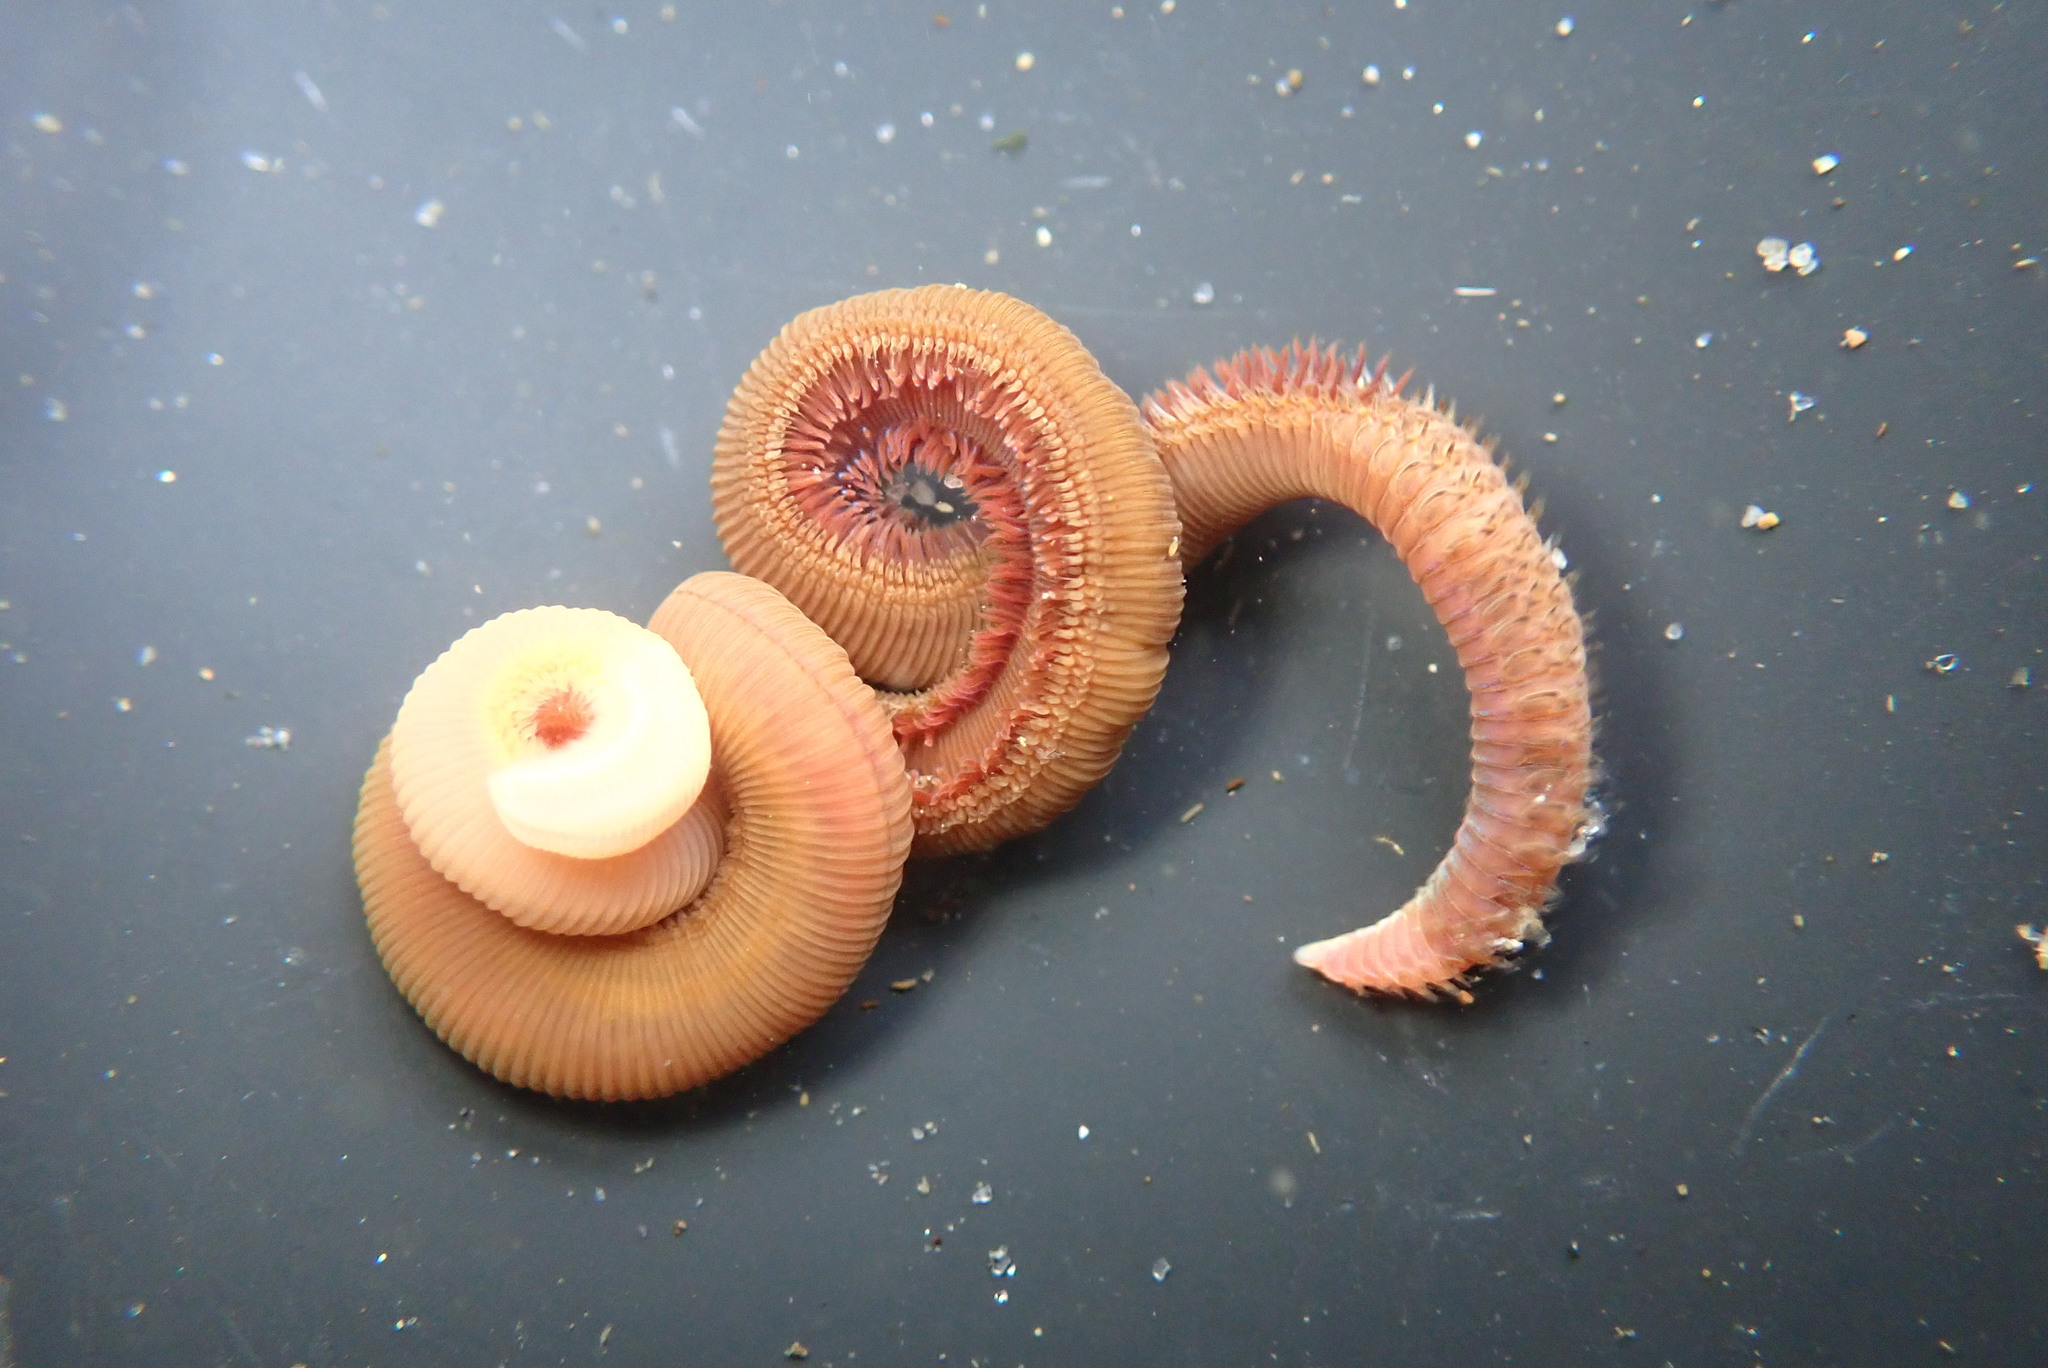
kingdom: Animalia
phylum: Annelida
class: Polychaeta
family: Orbiniidae
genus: Naineris
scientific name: Naineris dendritica
